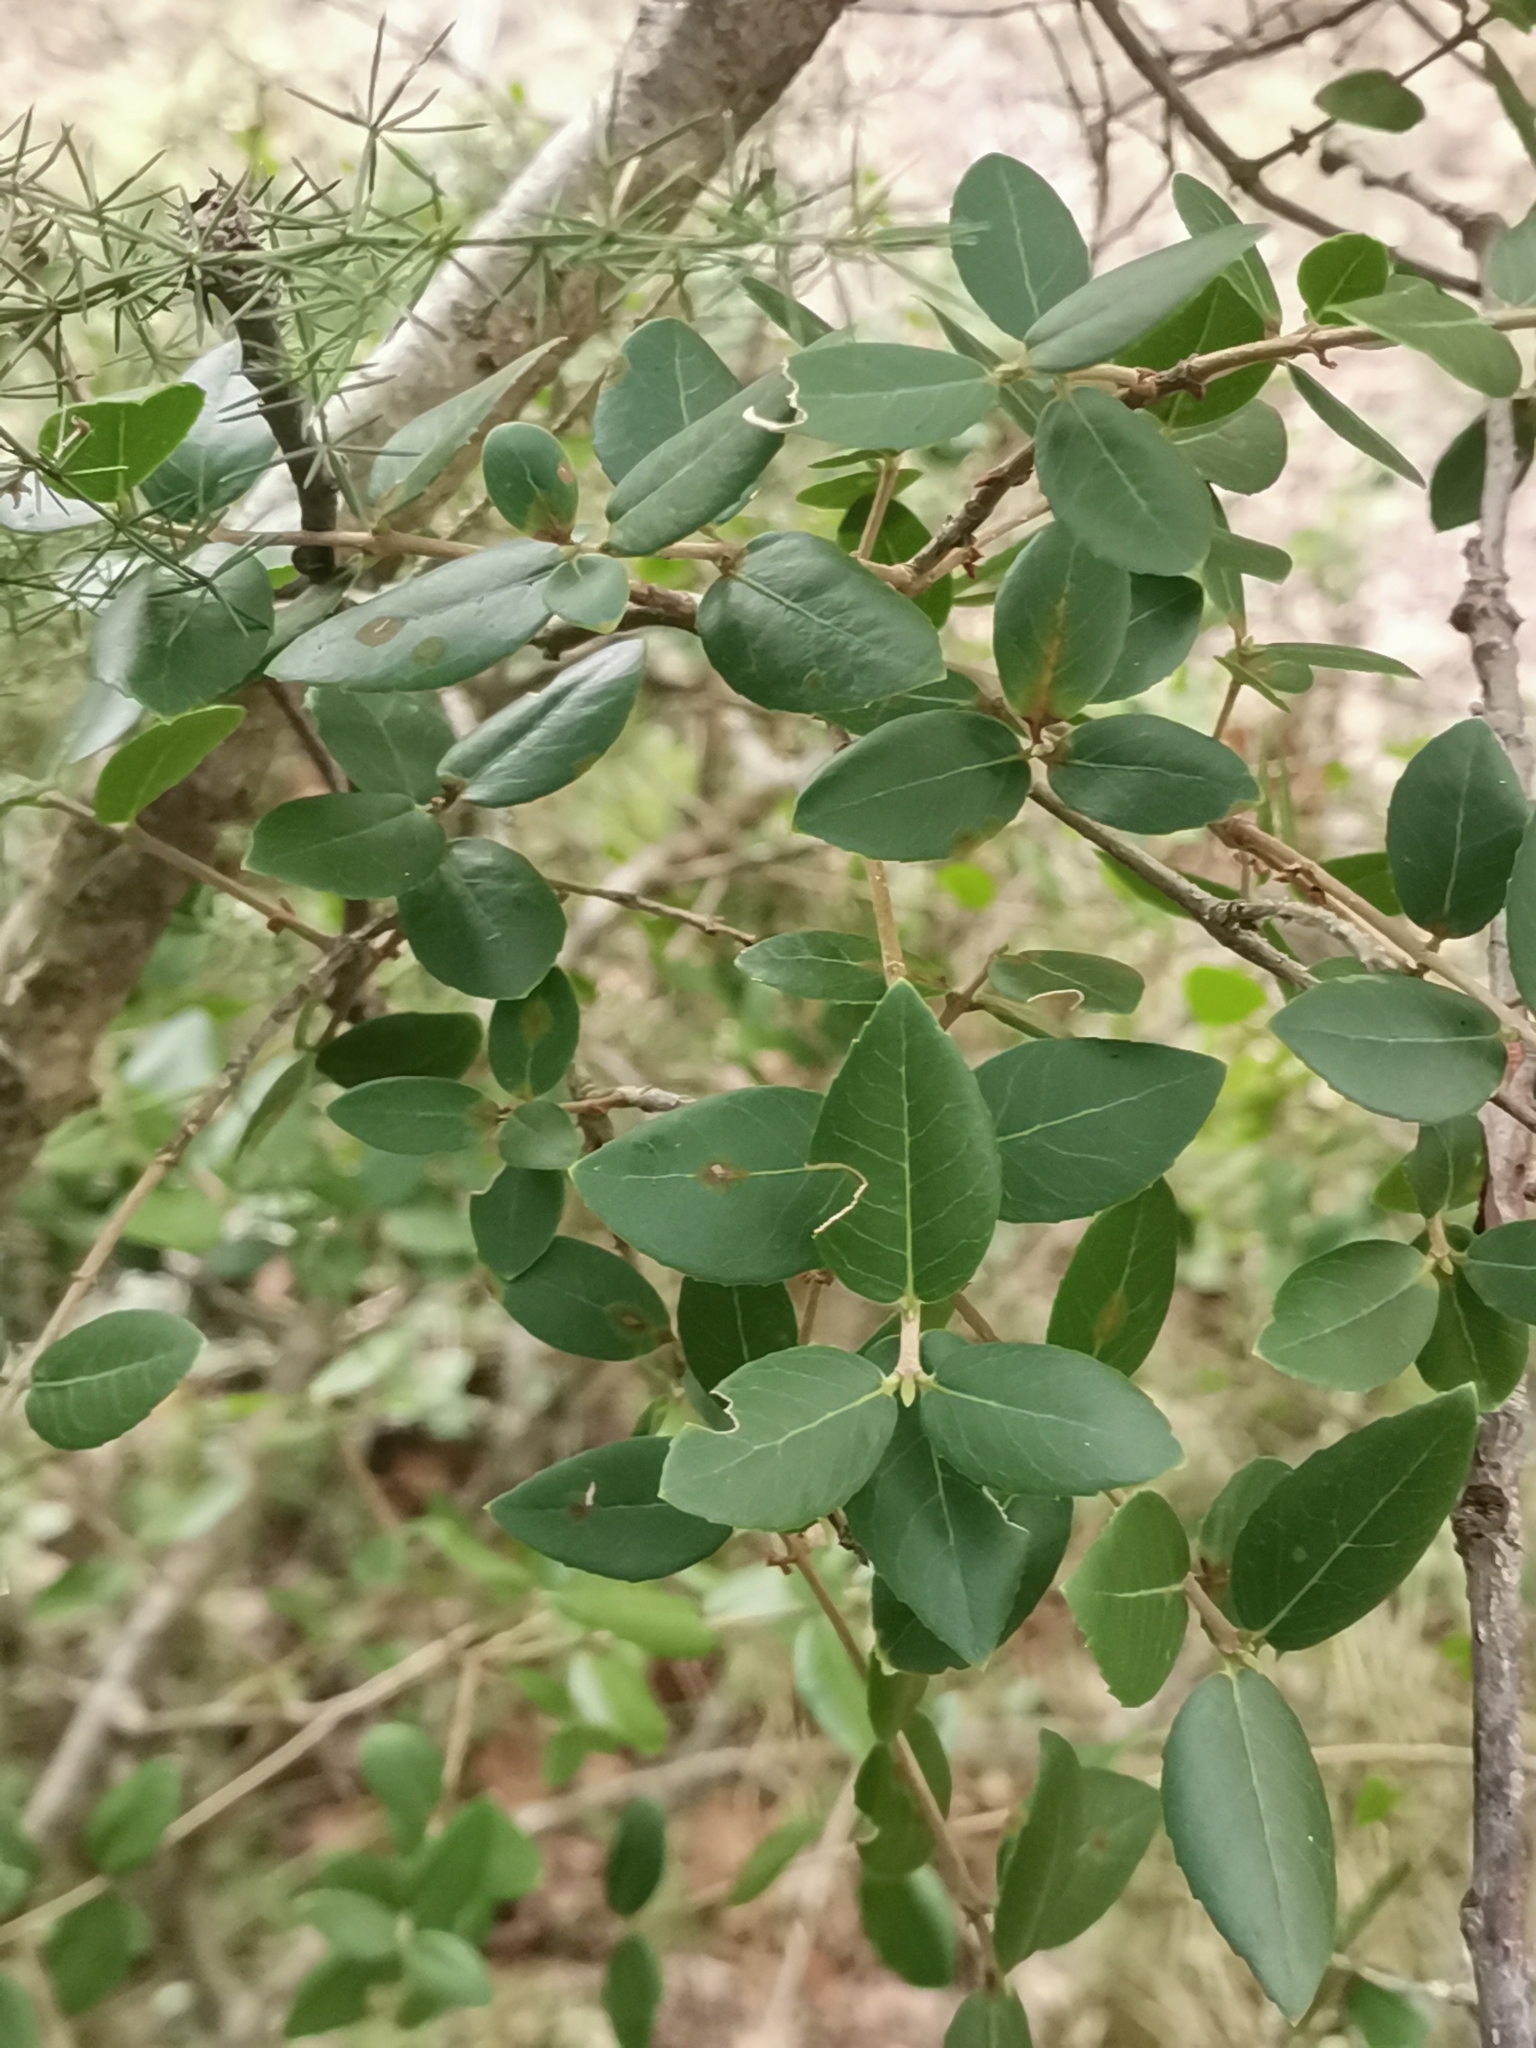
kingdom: Plantae
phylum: Tracheophyta
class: Liliopsida
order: Asparagales
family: Asparagaceae
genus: Asparagus
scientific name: Asparagus acutifolius
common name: Wild asparagus
